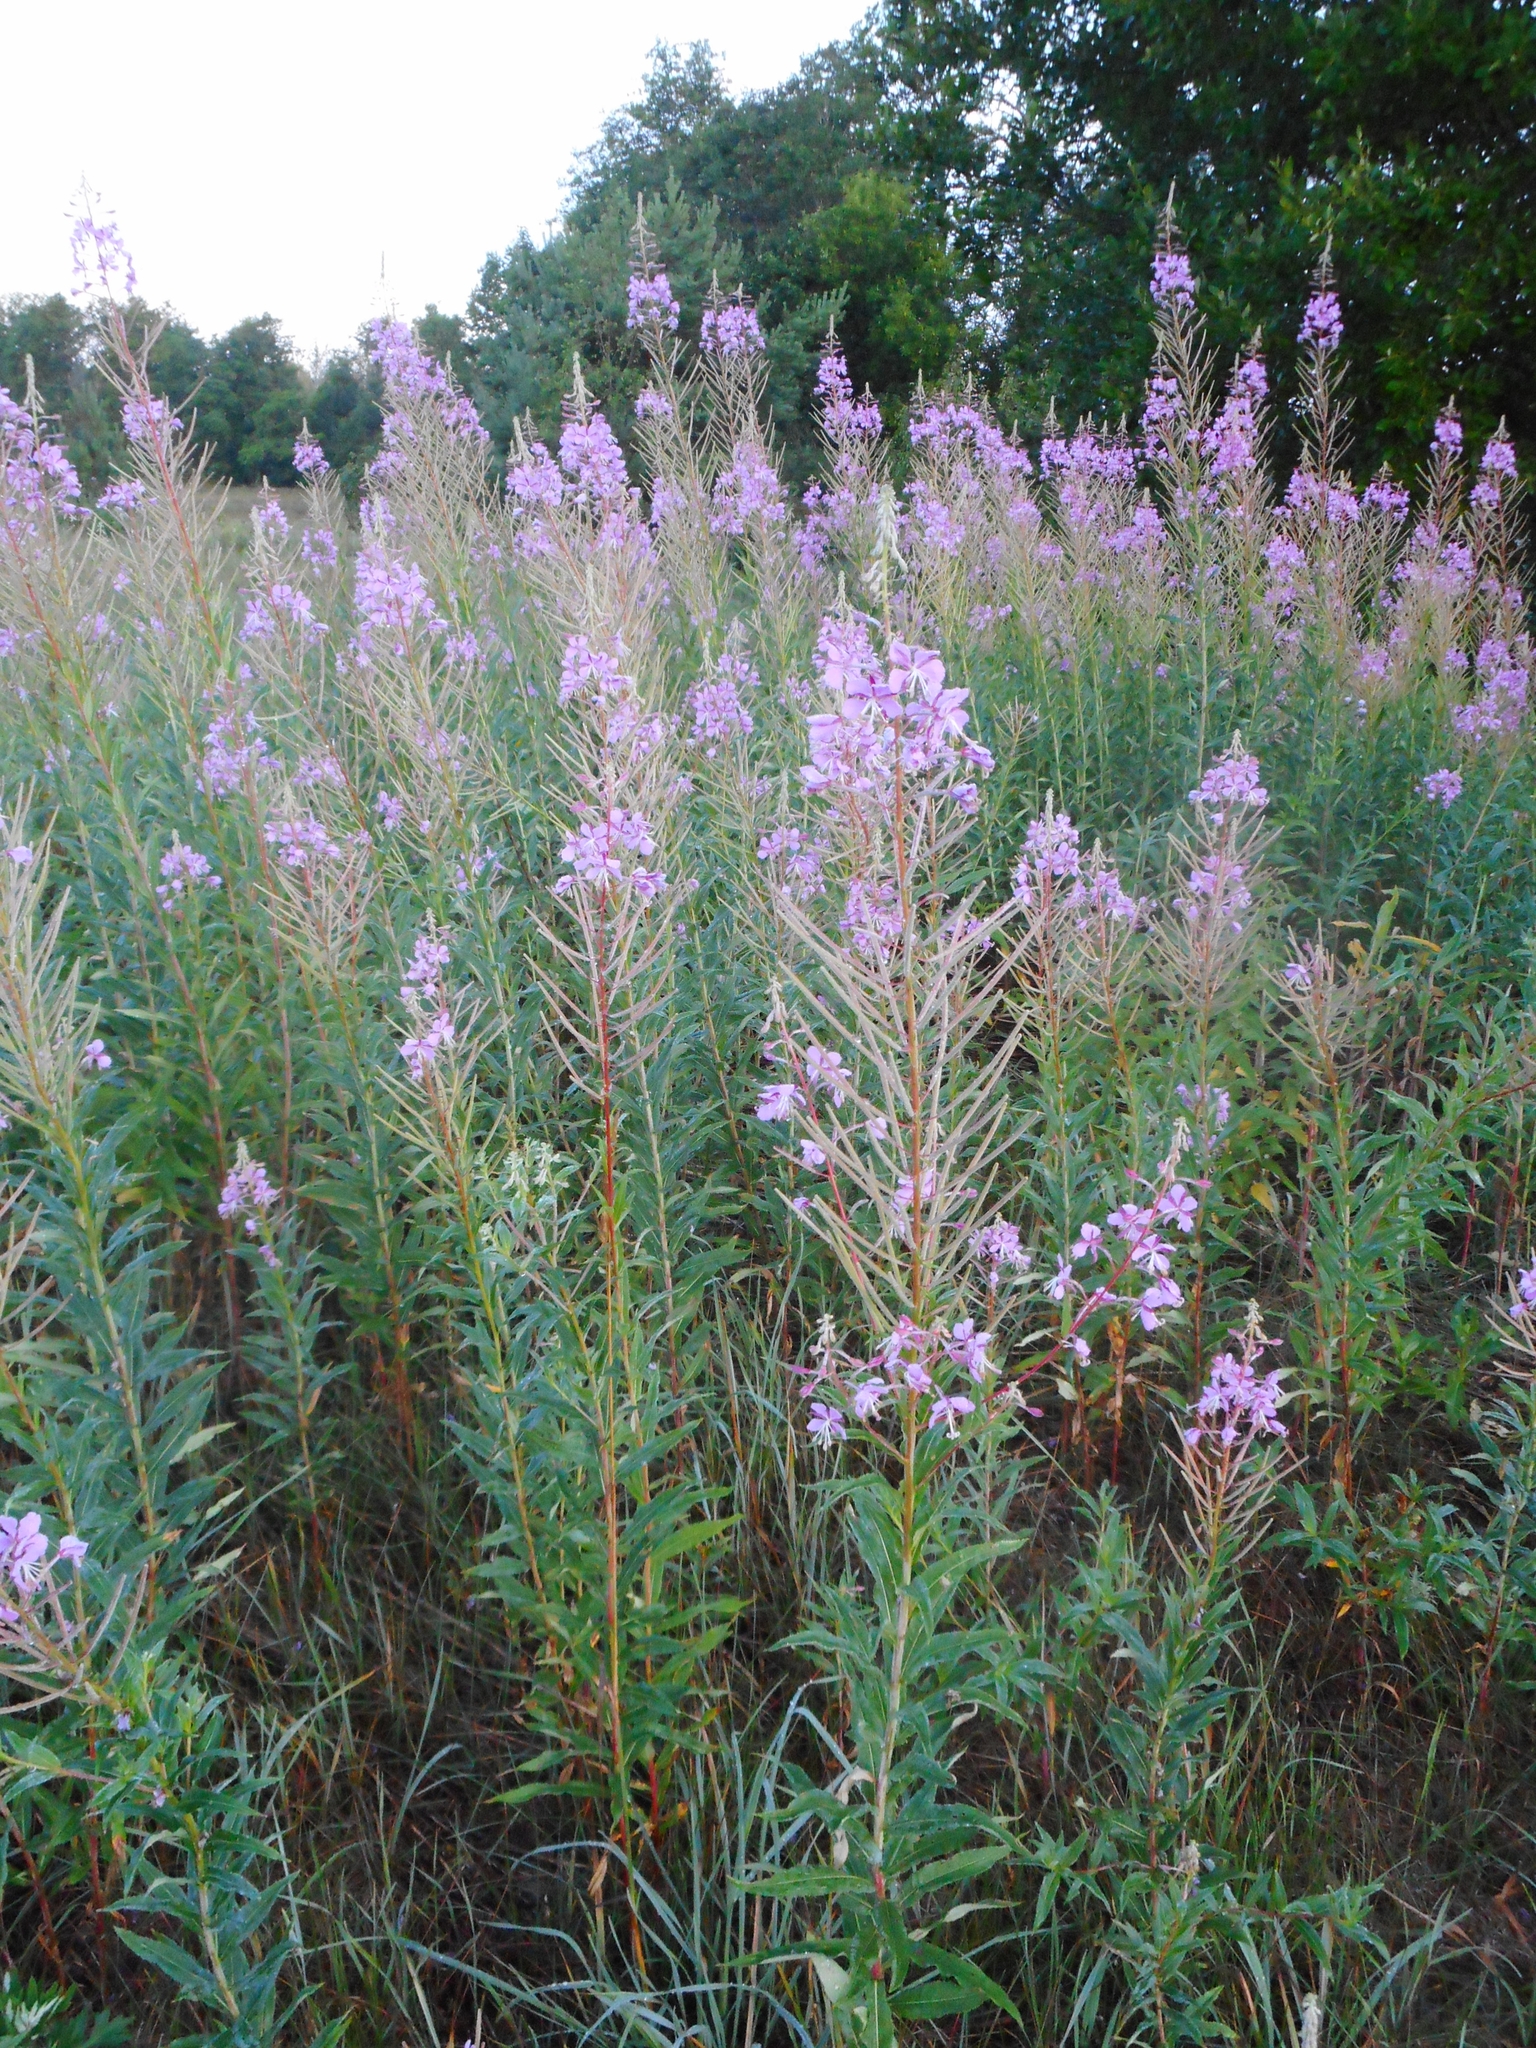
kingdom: Plantae
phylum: Tracheophyta
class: Magnoliopsida
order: Myrtales
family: Onagraceae
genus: Chamaenerion
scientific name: Chamaenerion angustifolium
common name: Fireweed
